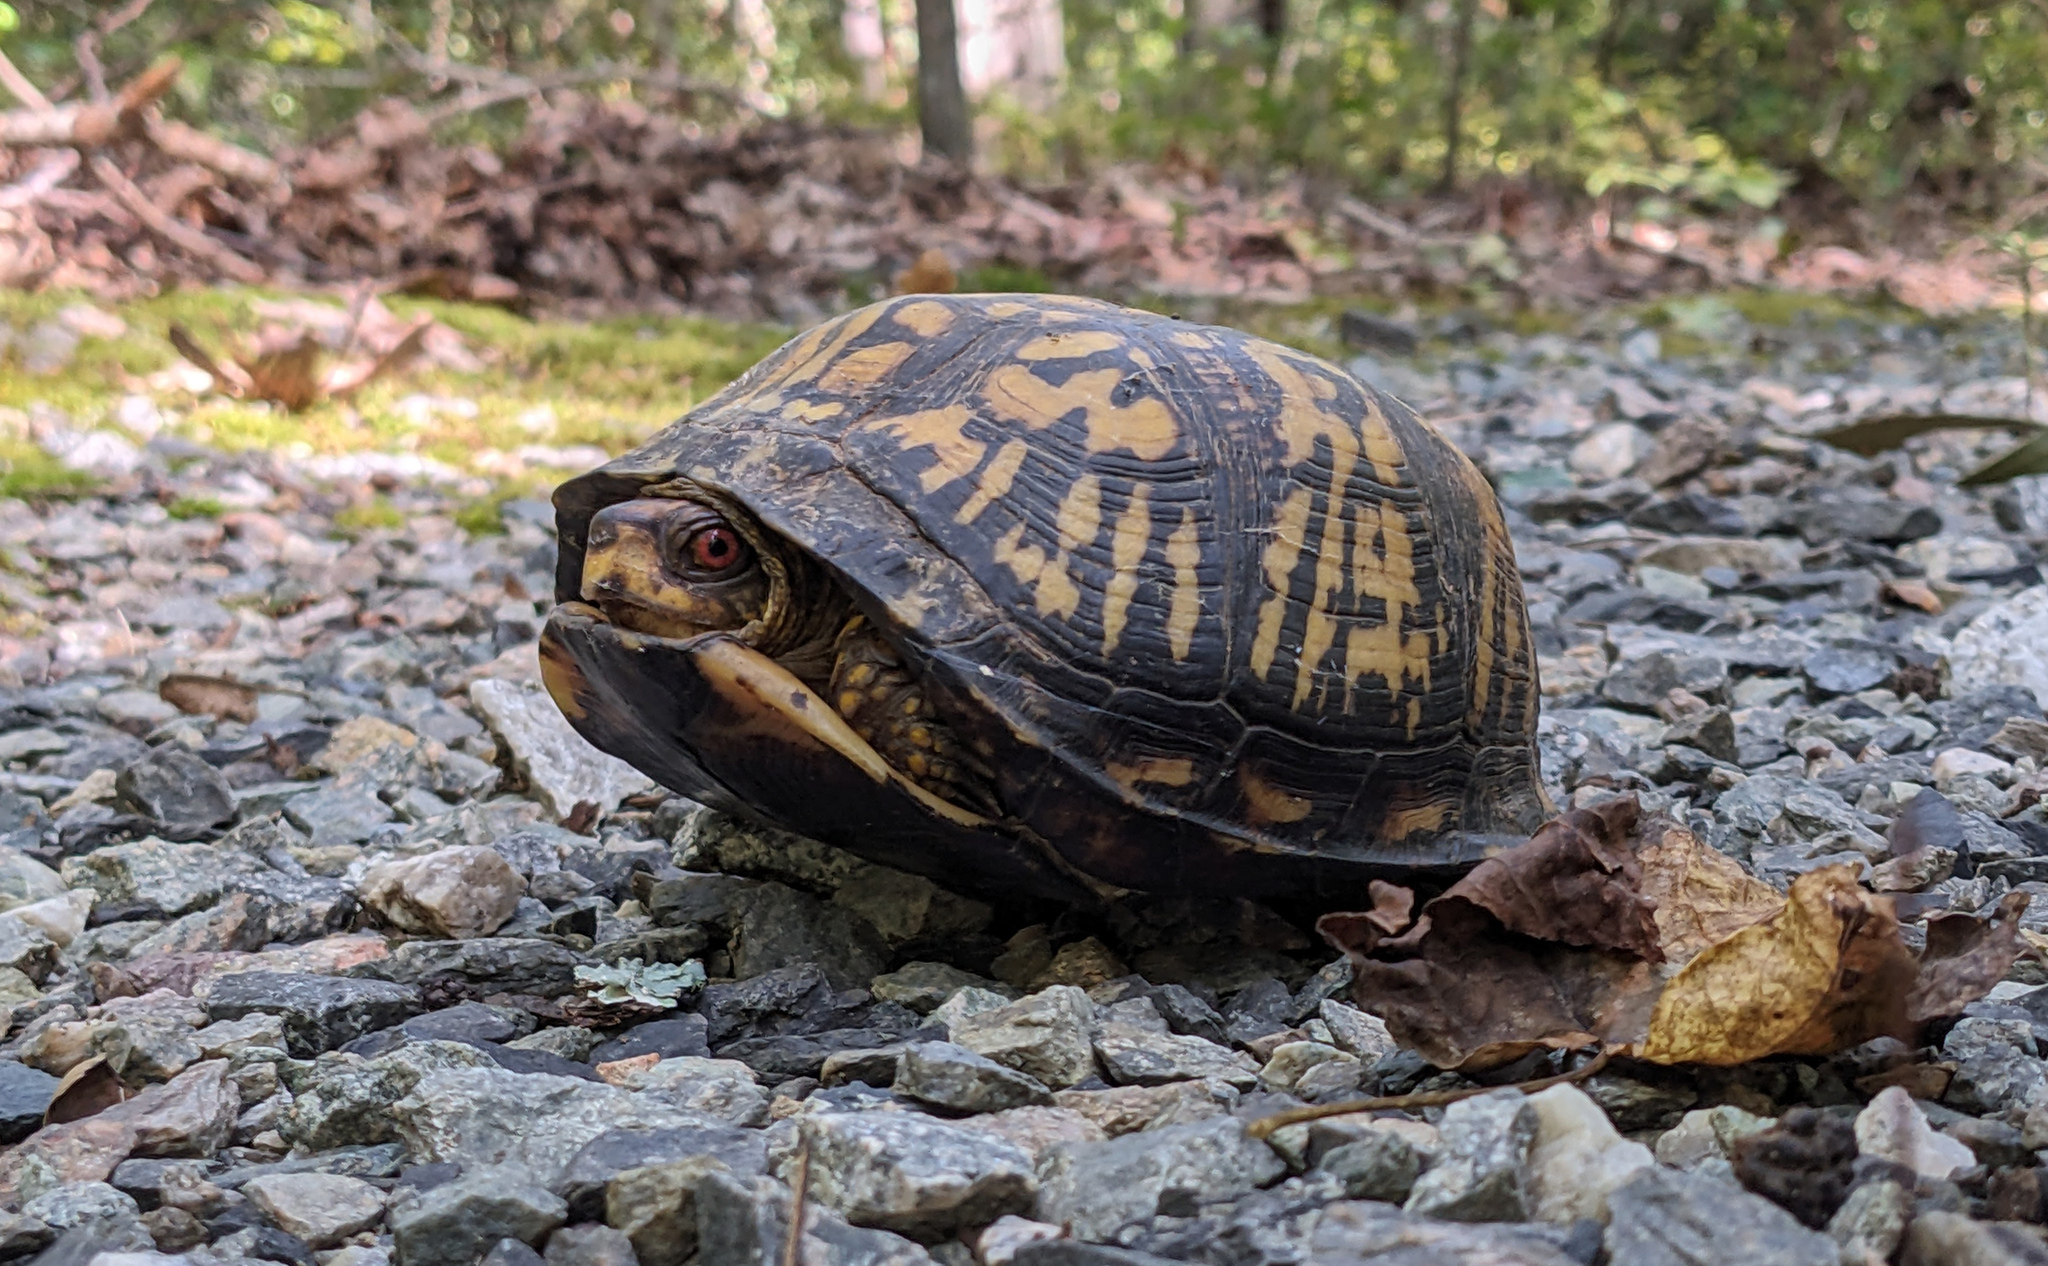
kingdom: Animalia
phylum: Chordata
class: Testudines
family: Emydidae
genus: Terrapene
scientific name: Terrapene carolina
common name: Common box turtle
